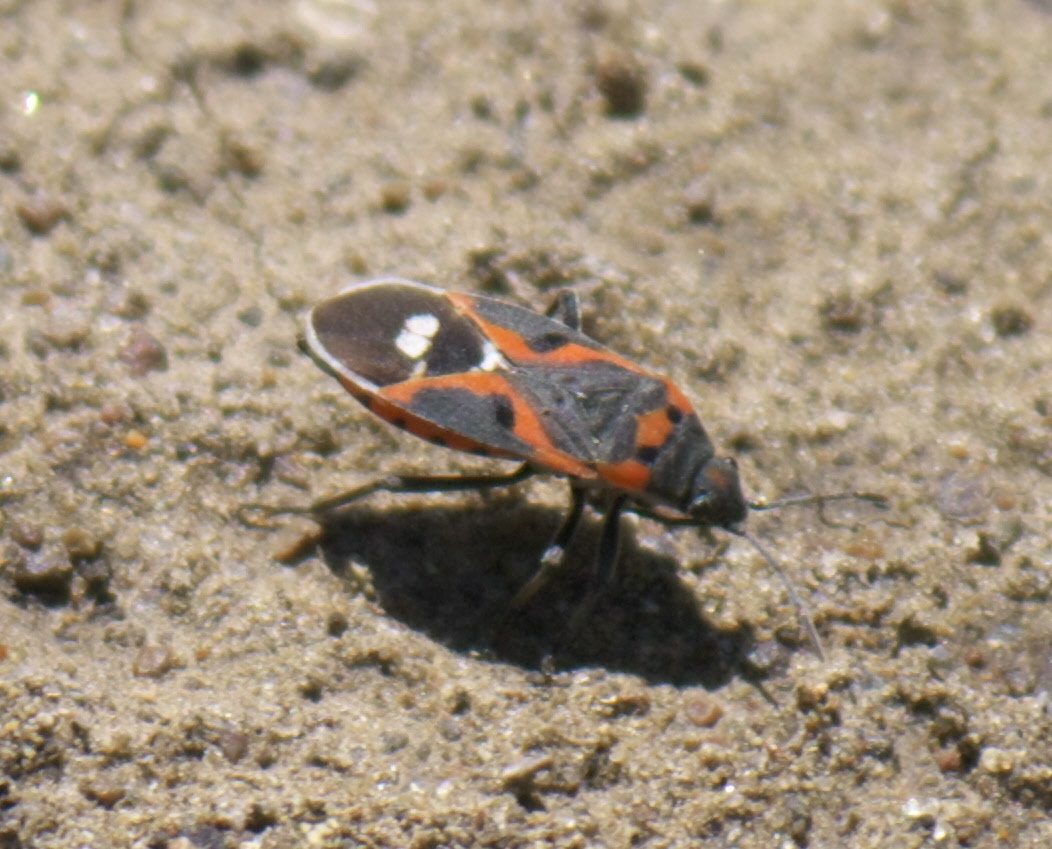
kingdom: Animalia
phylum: Arthropoda
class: Insecta
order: Hemiptera
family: Lygaeidae
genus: Lygaeus
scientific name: Lygaeus kalmii
